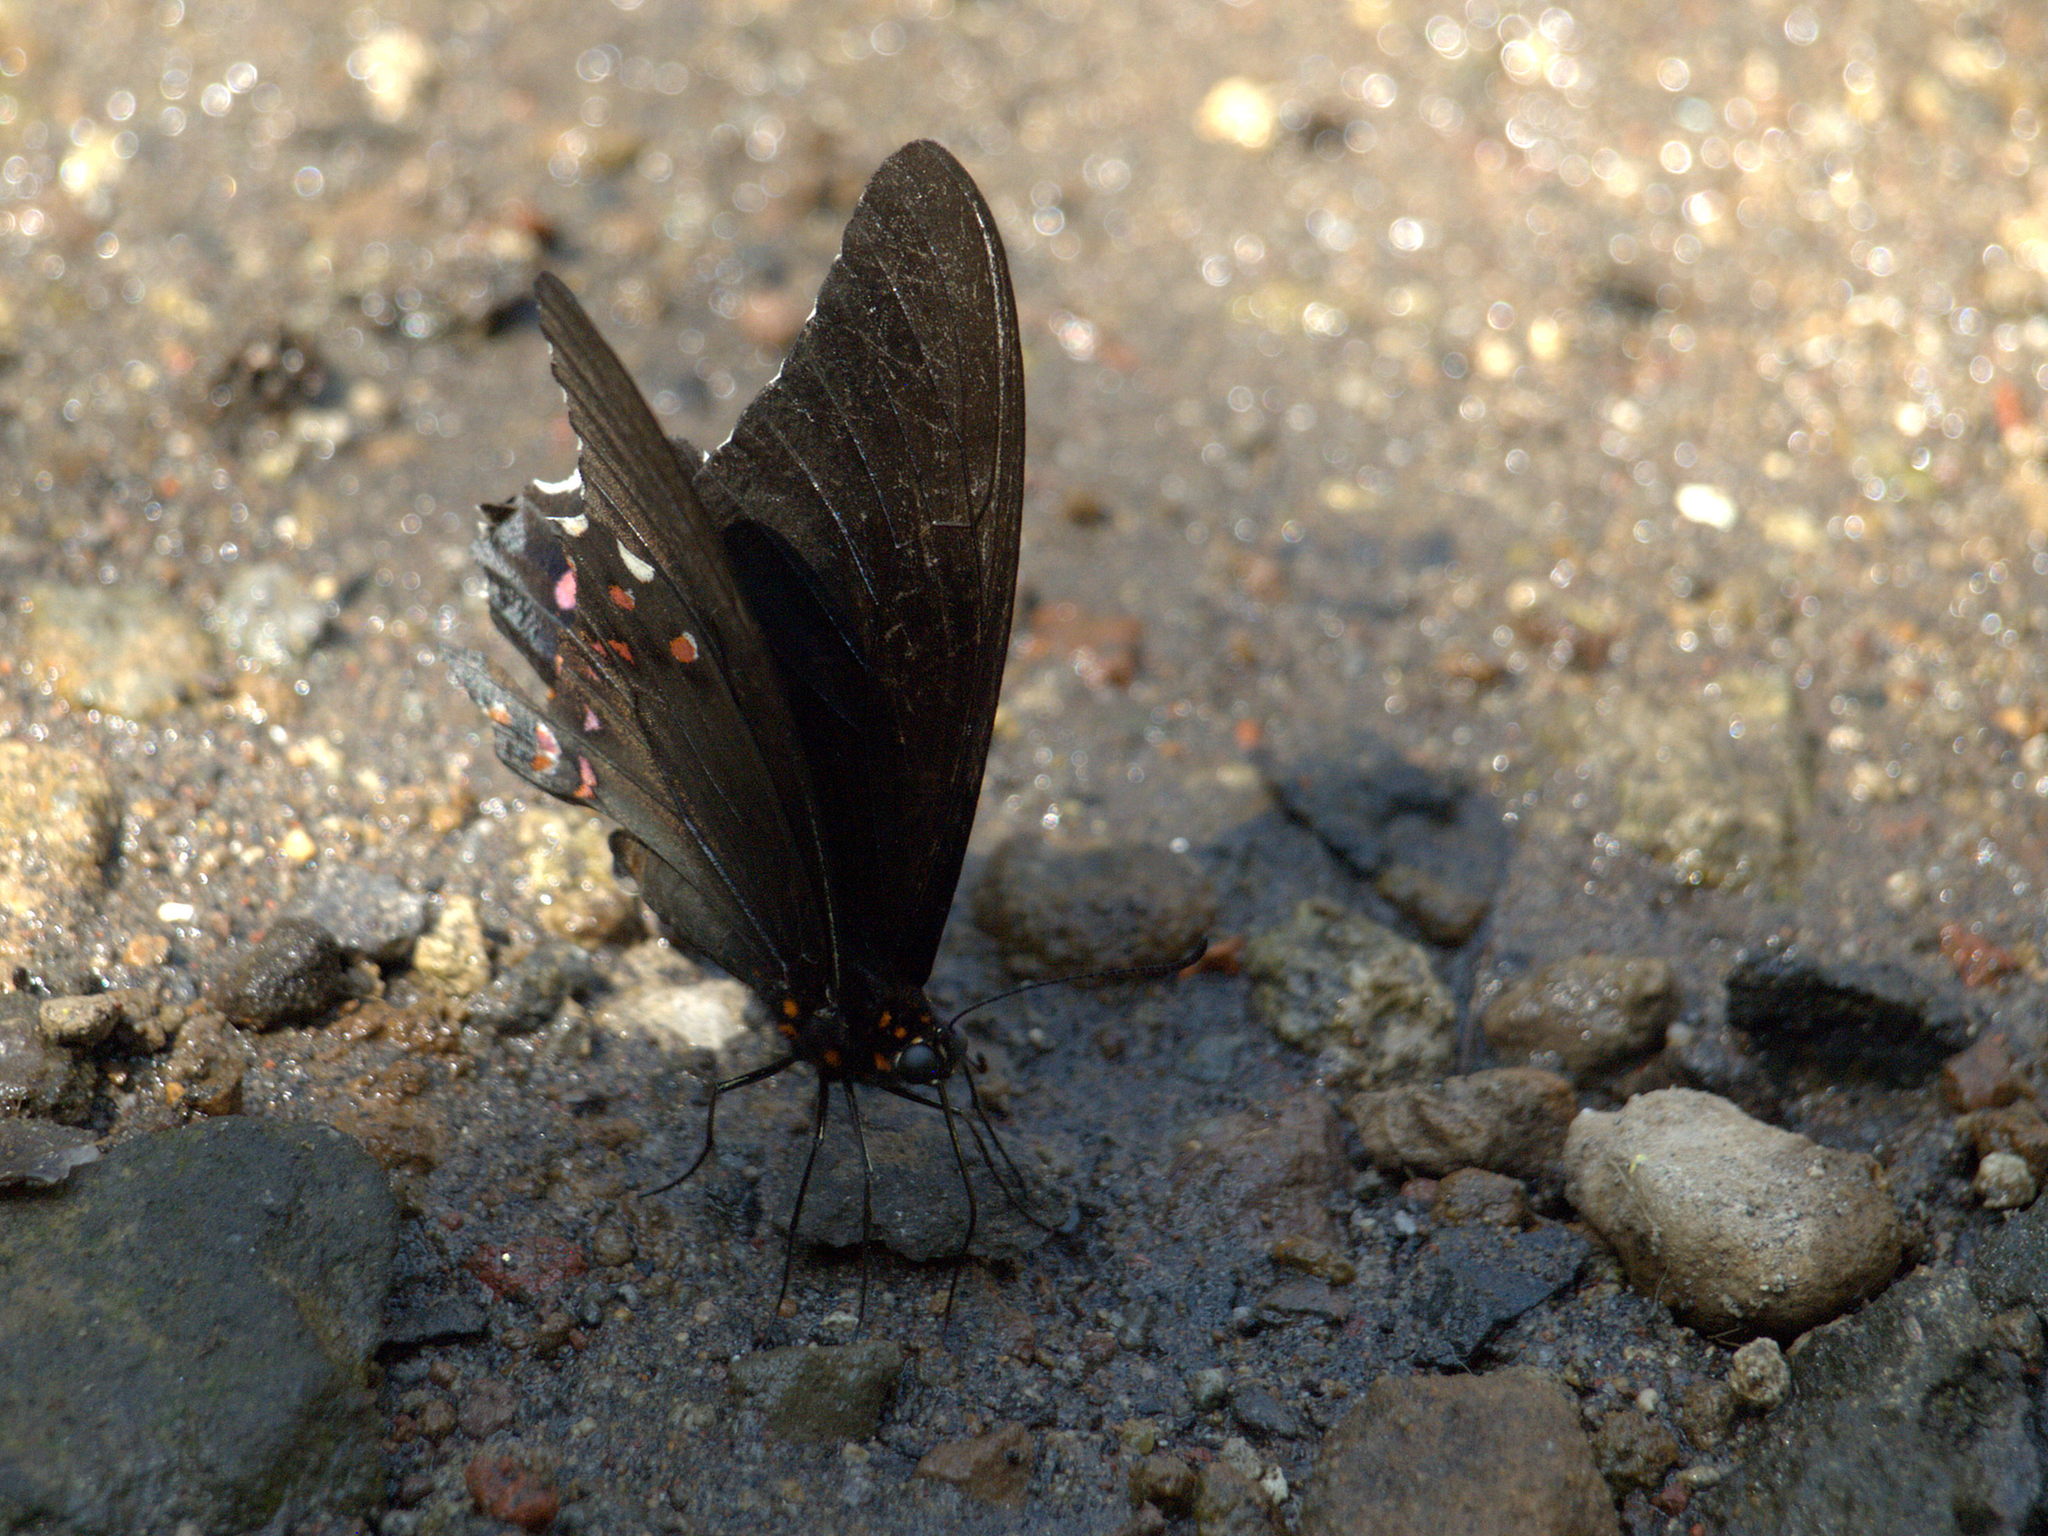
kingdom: Animalia
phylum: Arthropoda
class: Insecta
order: Lepidoptera
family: Papilionidae
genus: Papilio
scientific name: Papilio anchisiades
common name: Idaes swallowtail
